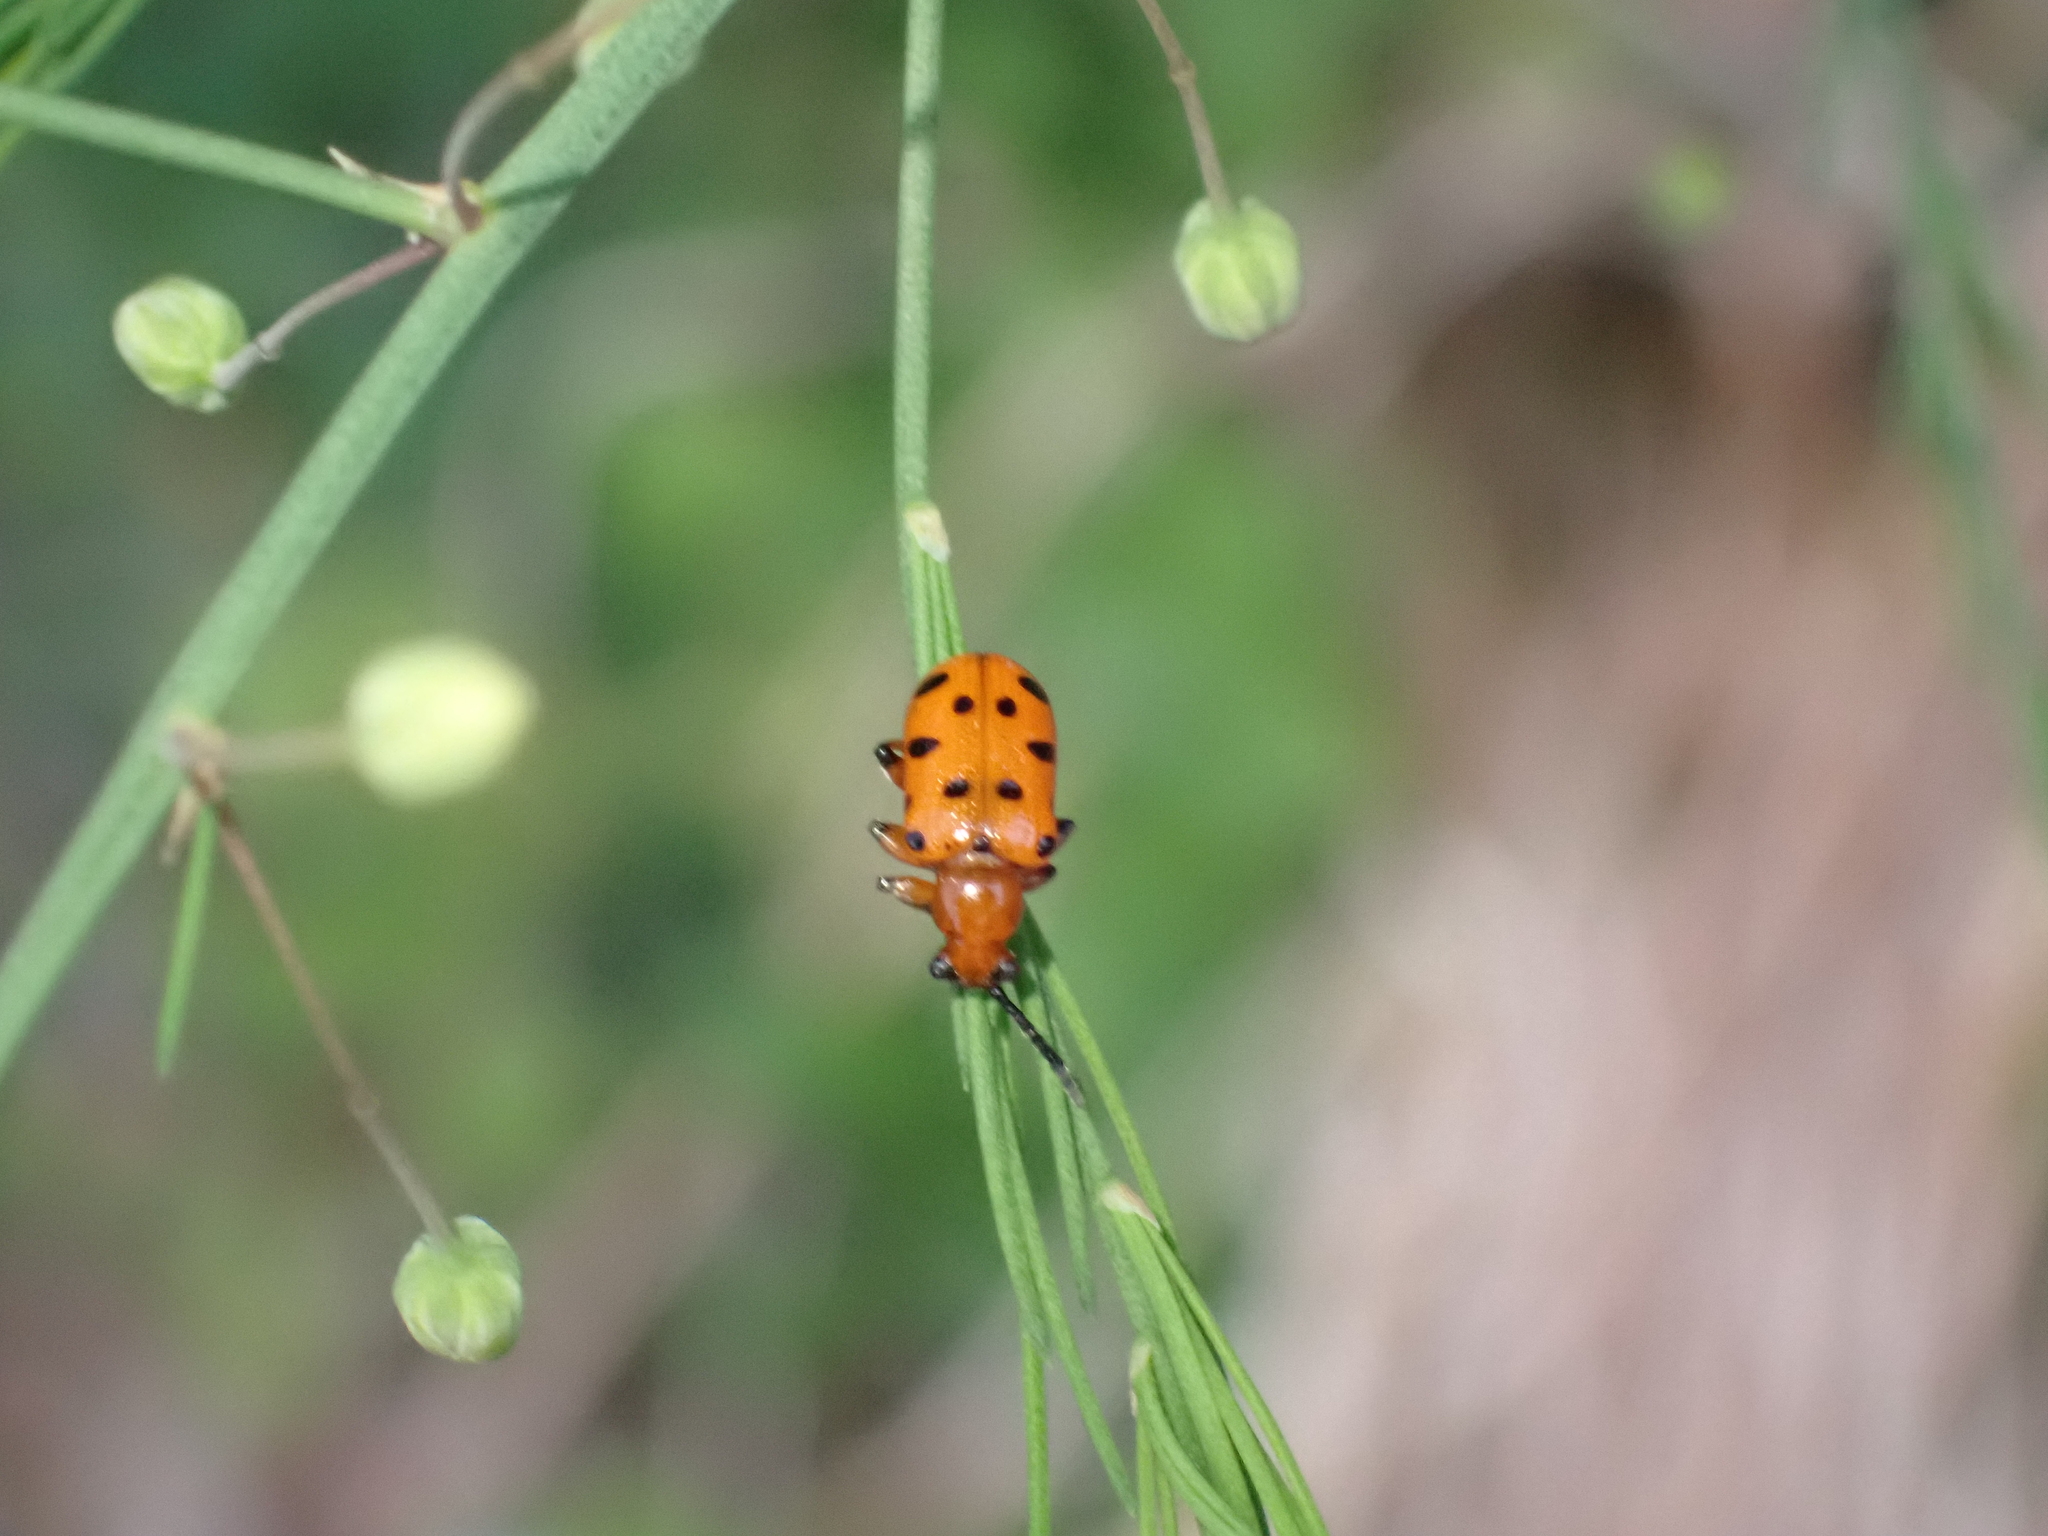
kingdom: Animalia
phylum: Arthropoda
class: Insecta
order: Coleoptera
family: Chrysomelidae
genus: Crioceris
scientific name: Crioceris duodecimpunctata
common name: Twelve-spotted asparagus beetle
